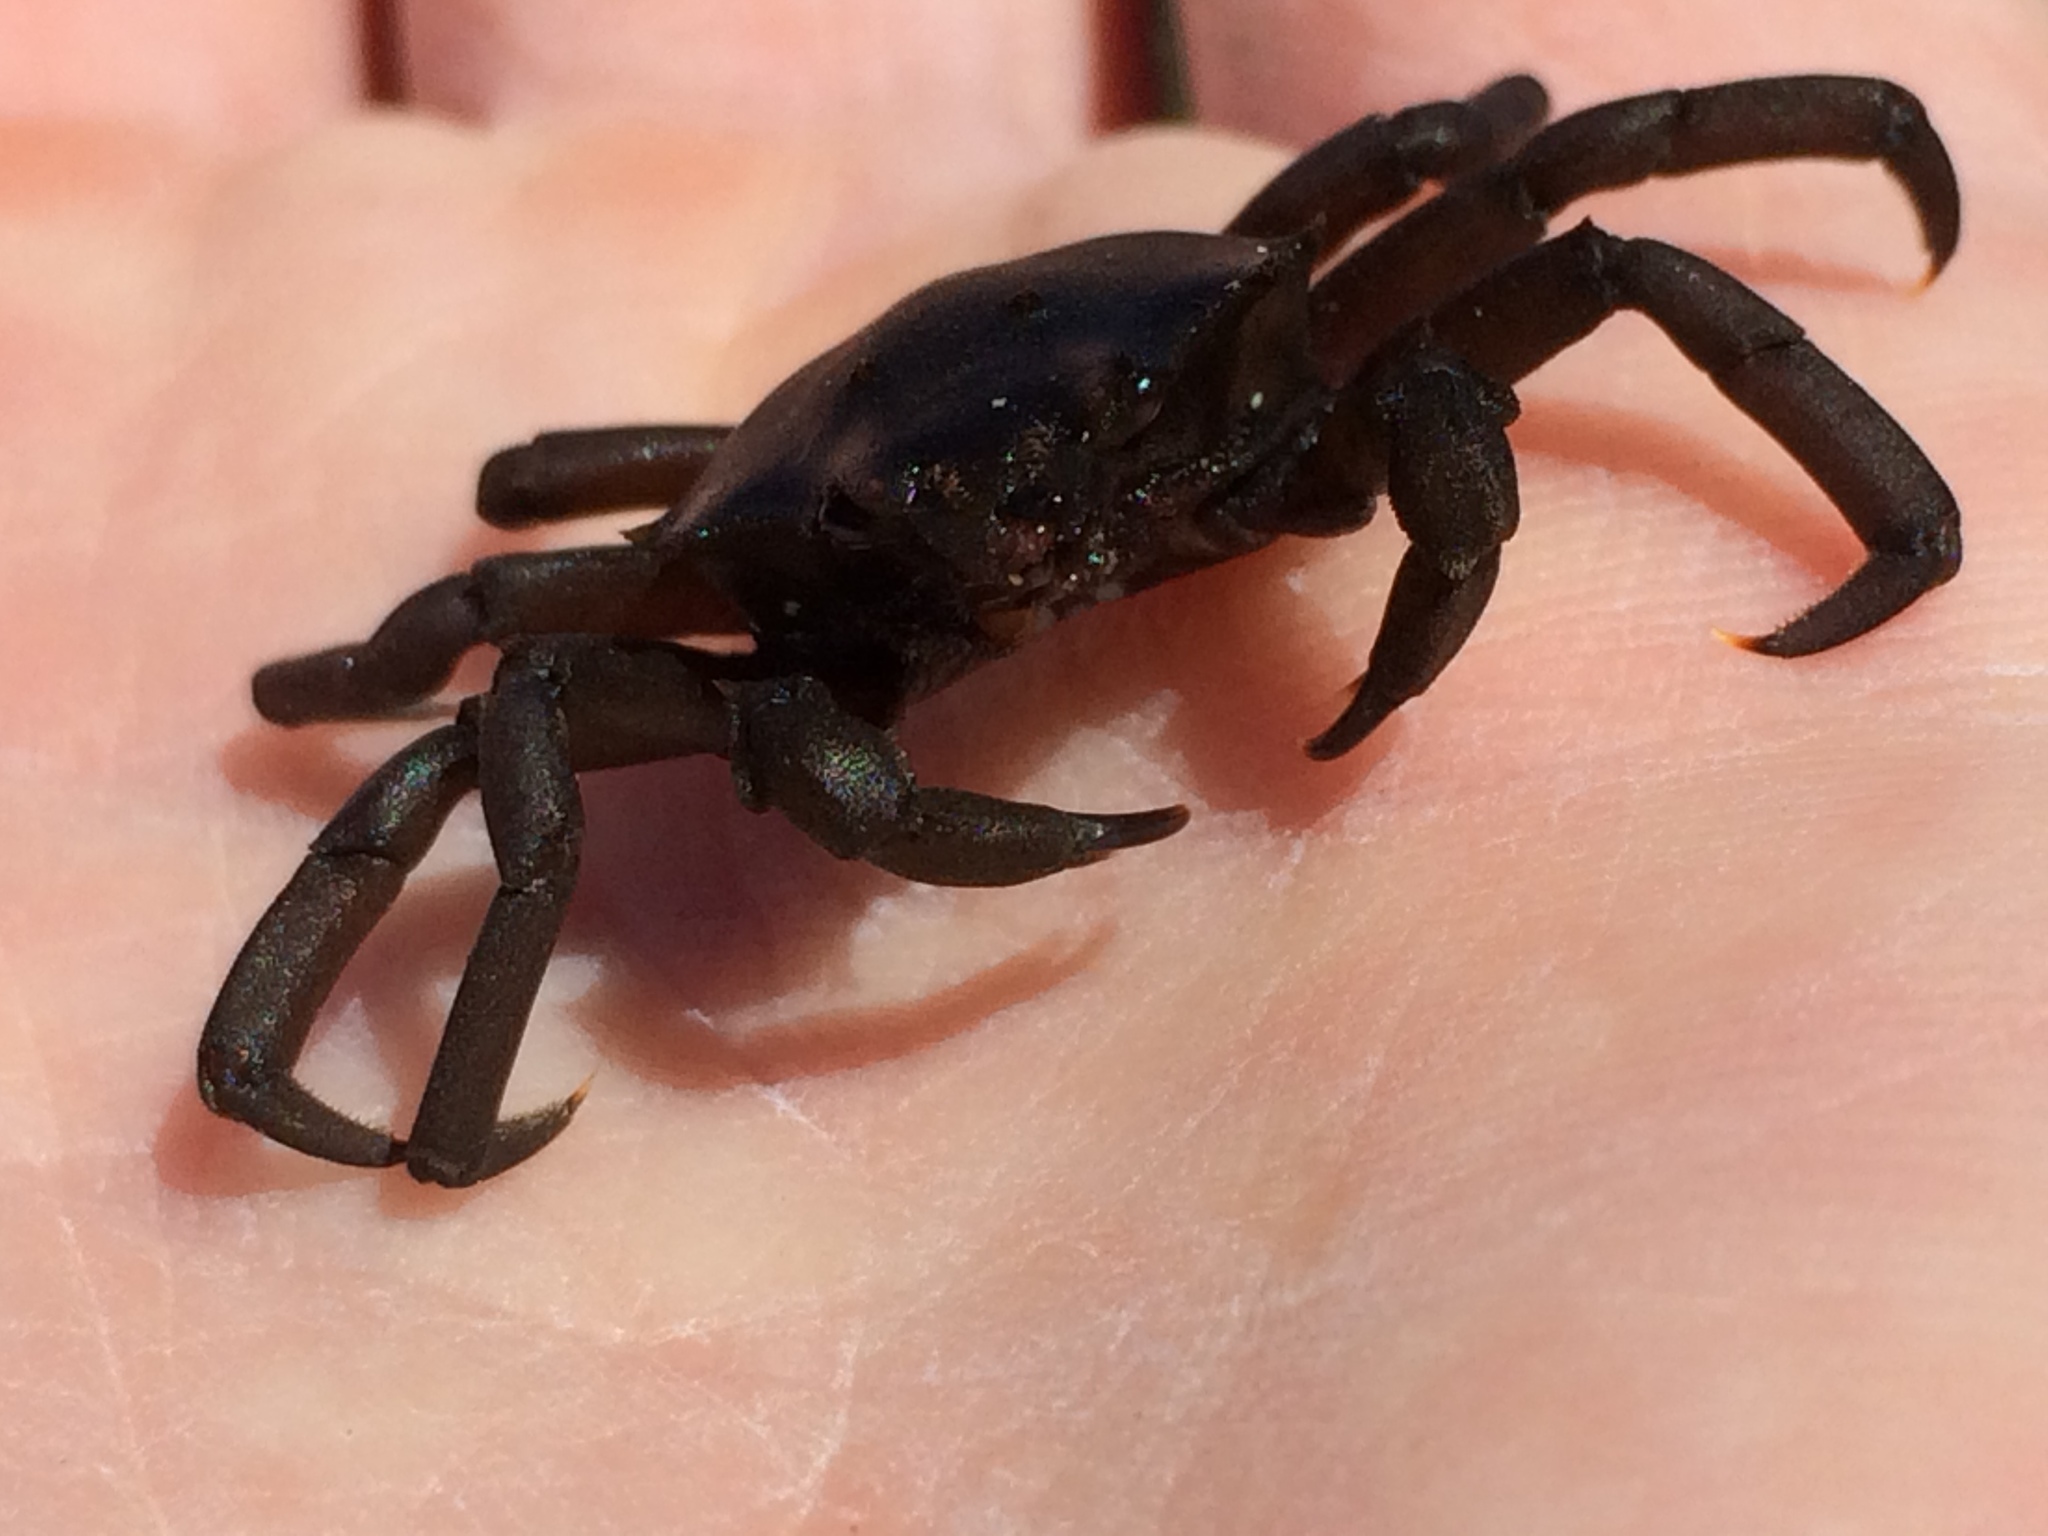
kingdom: Animalia
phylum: Arthropoda
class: Malacostraca
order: Decapoda
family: Epialtidae
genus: Pugettia
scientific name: Pugettia producta
